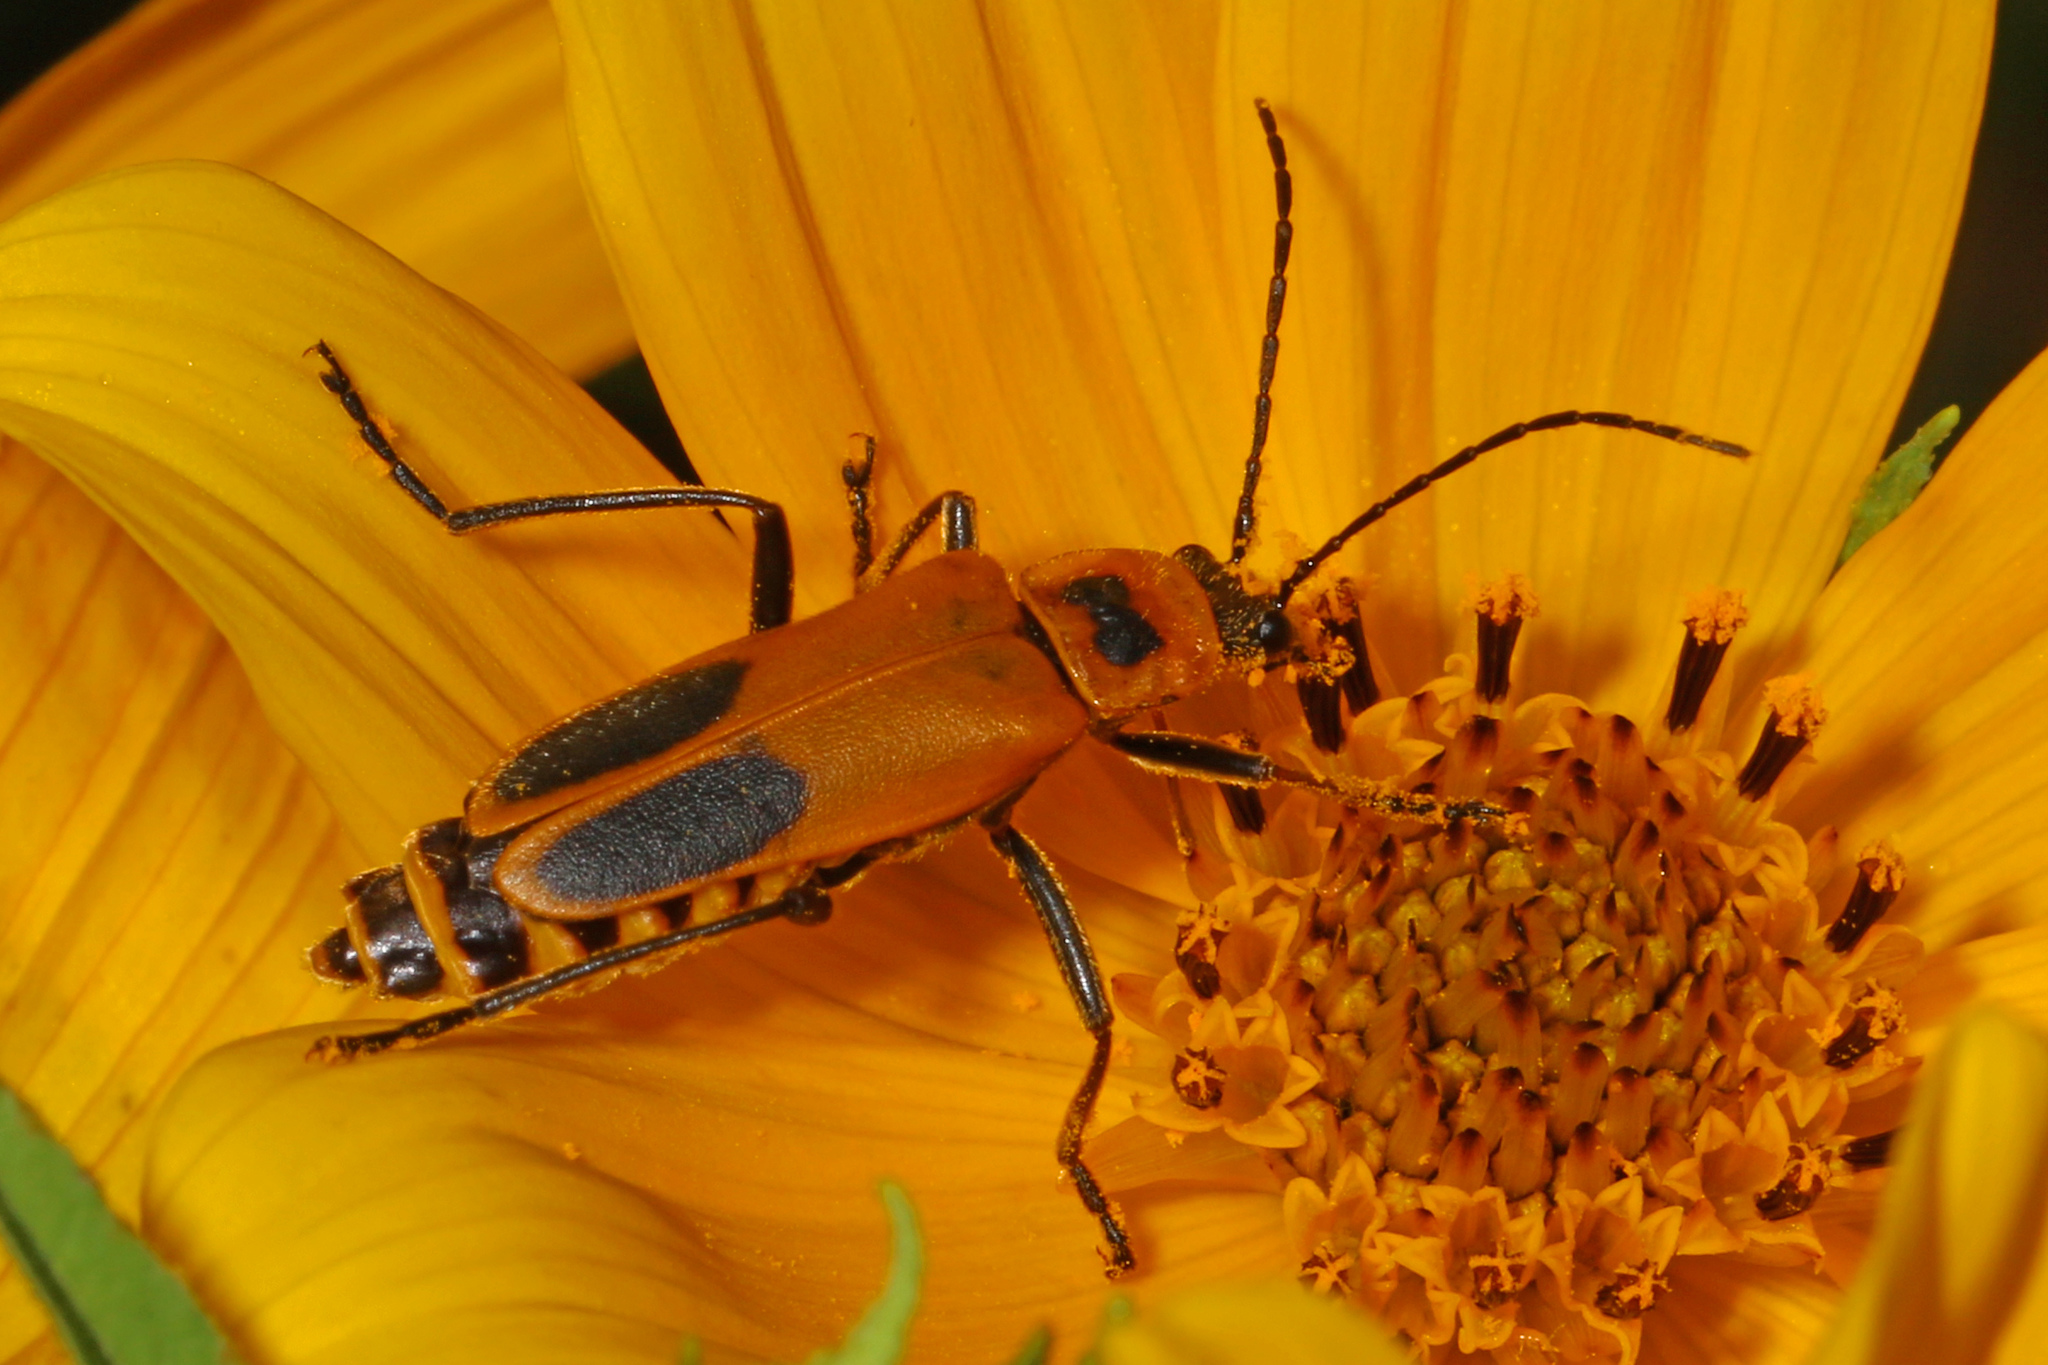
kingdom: Animalia
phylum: Arthropoda
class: Insecta
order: Coleoptera
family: Cantharidae
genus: Chauliognathus
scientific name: Chauliognathus pensylvanicus
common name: Goldenrod soldier beetle
